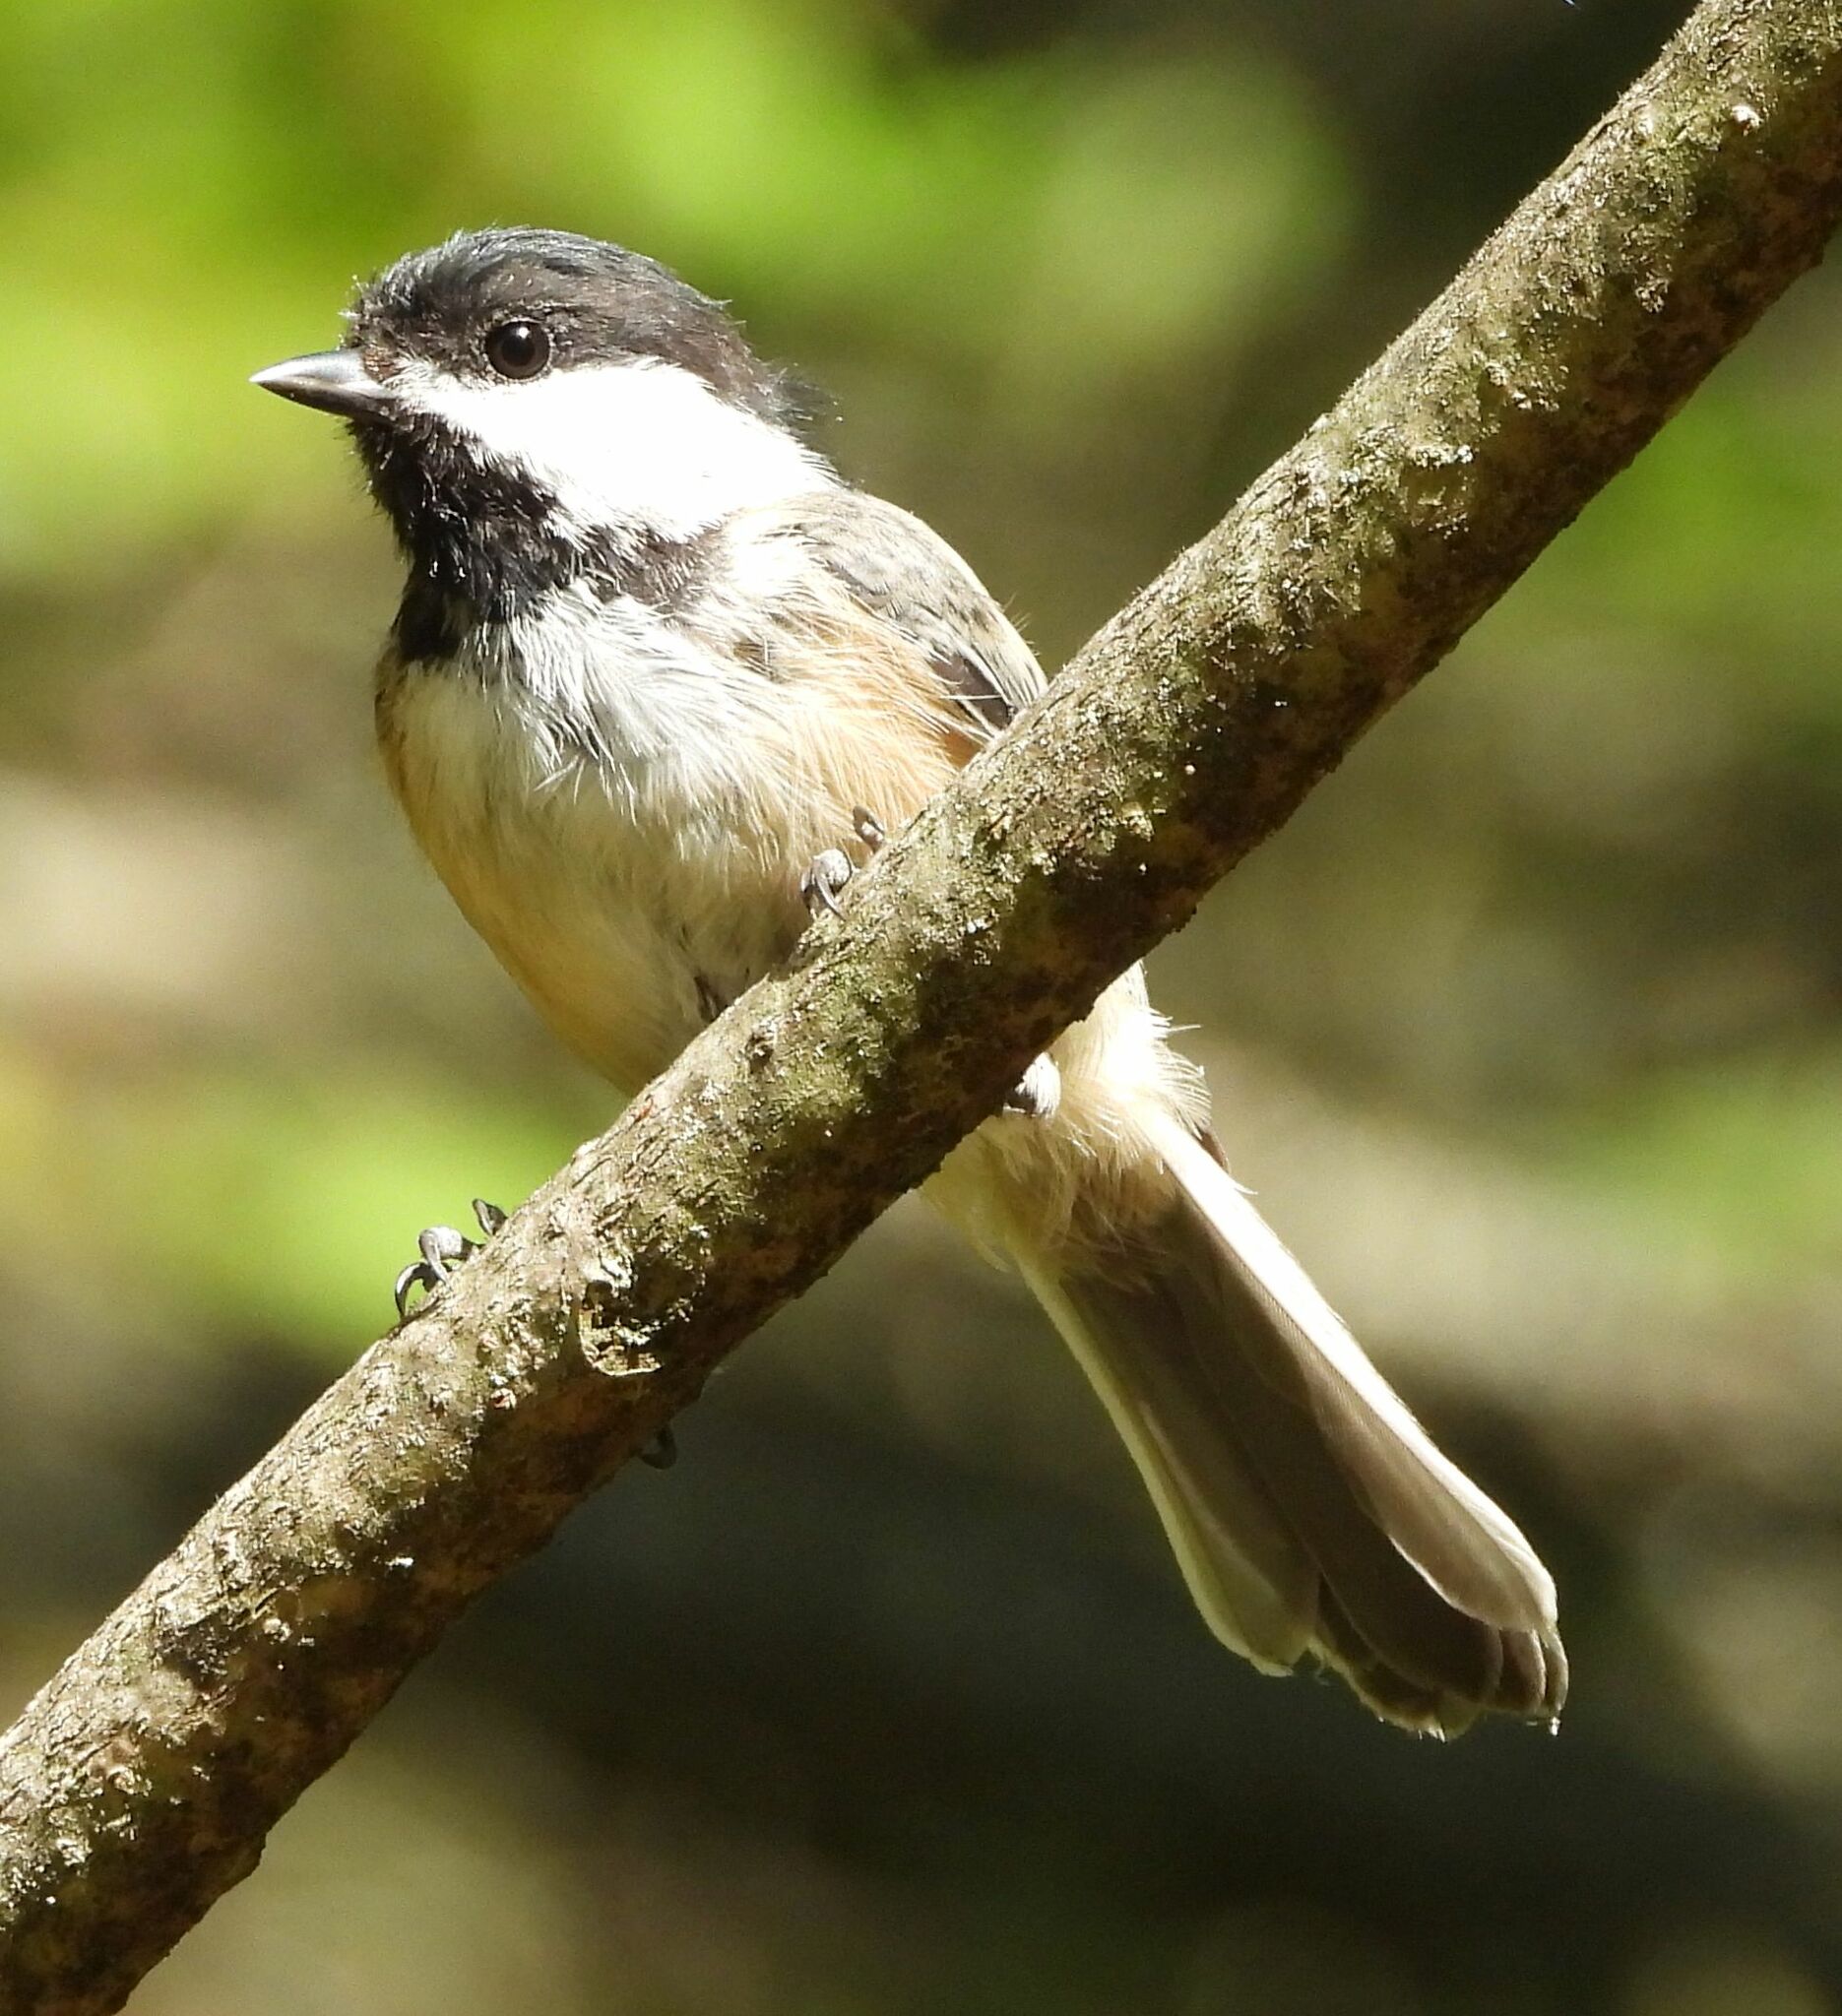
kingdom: Animalia
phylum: Chordata
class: Aves
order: Passeriformes
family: Paridae
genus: Poecile
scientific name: Poecile atricapillus
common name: Black-capped chickadee
